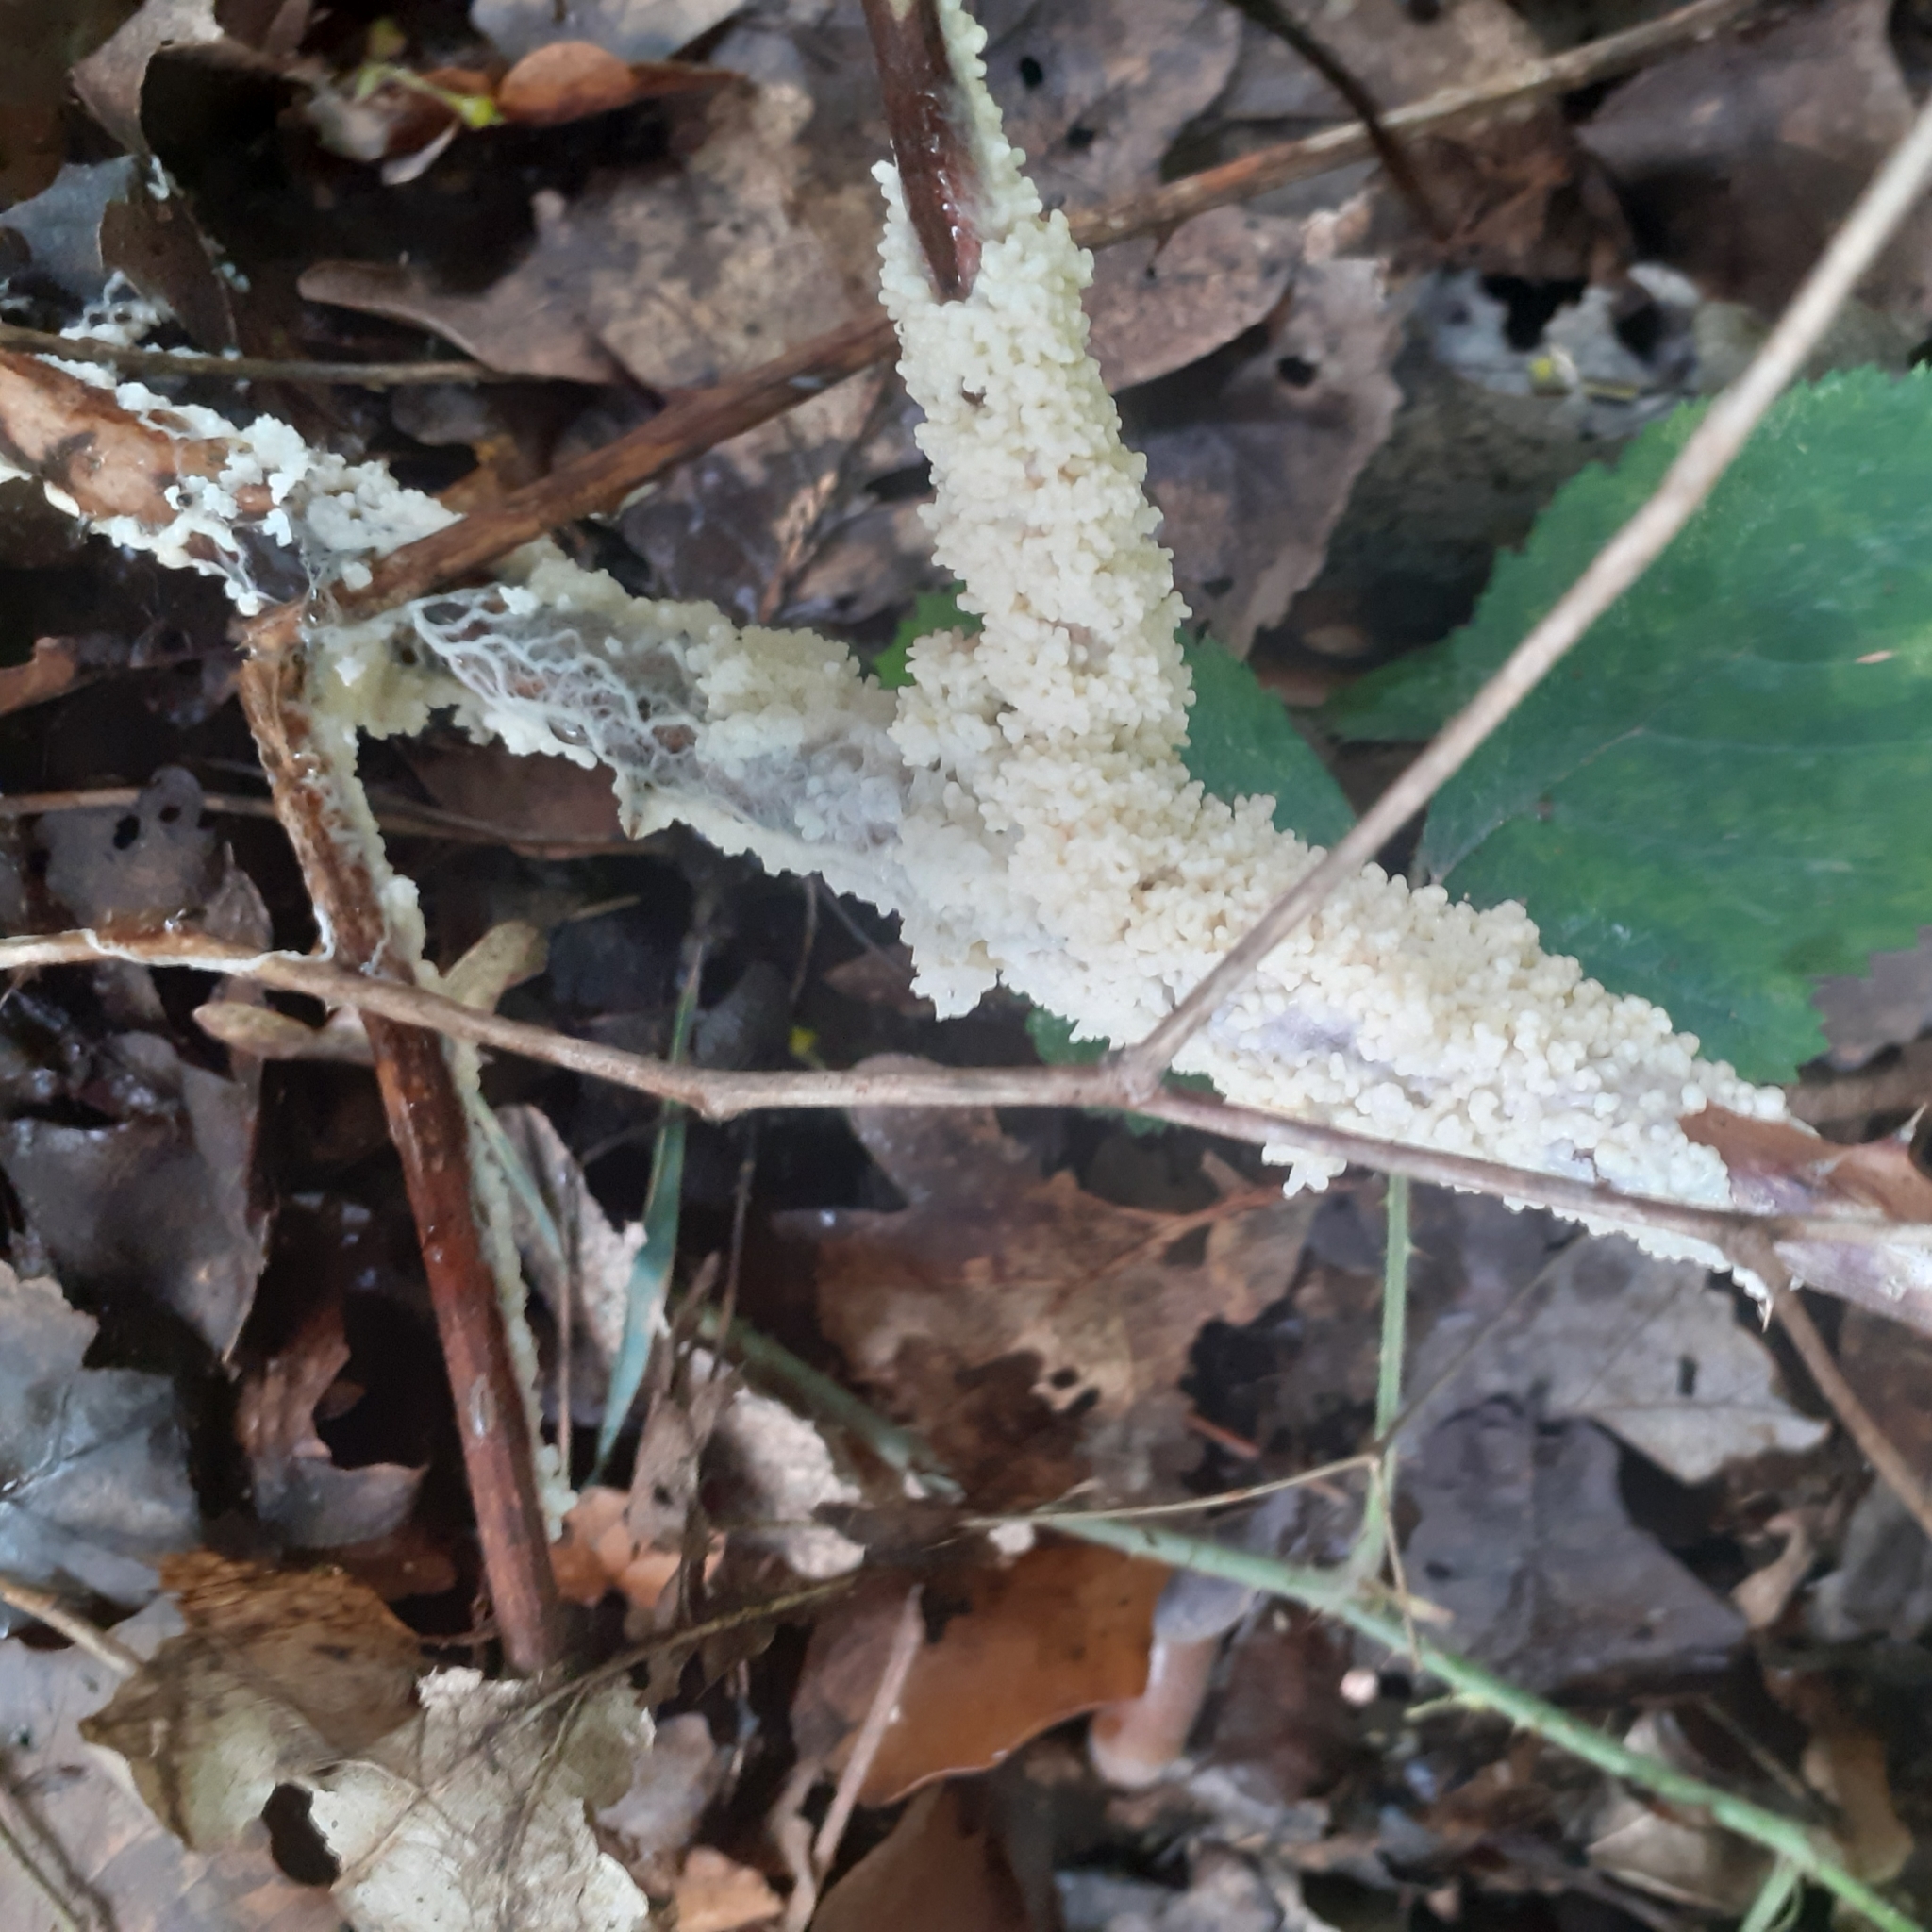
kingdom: Protozoa
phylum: Mycetozoa
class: Myxomycetes
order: Physarales
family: Physaraceae
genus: Didymium
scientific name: Didymium
